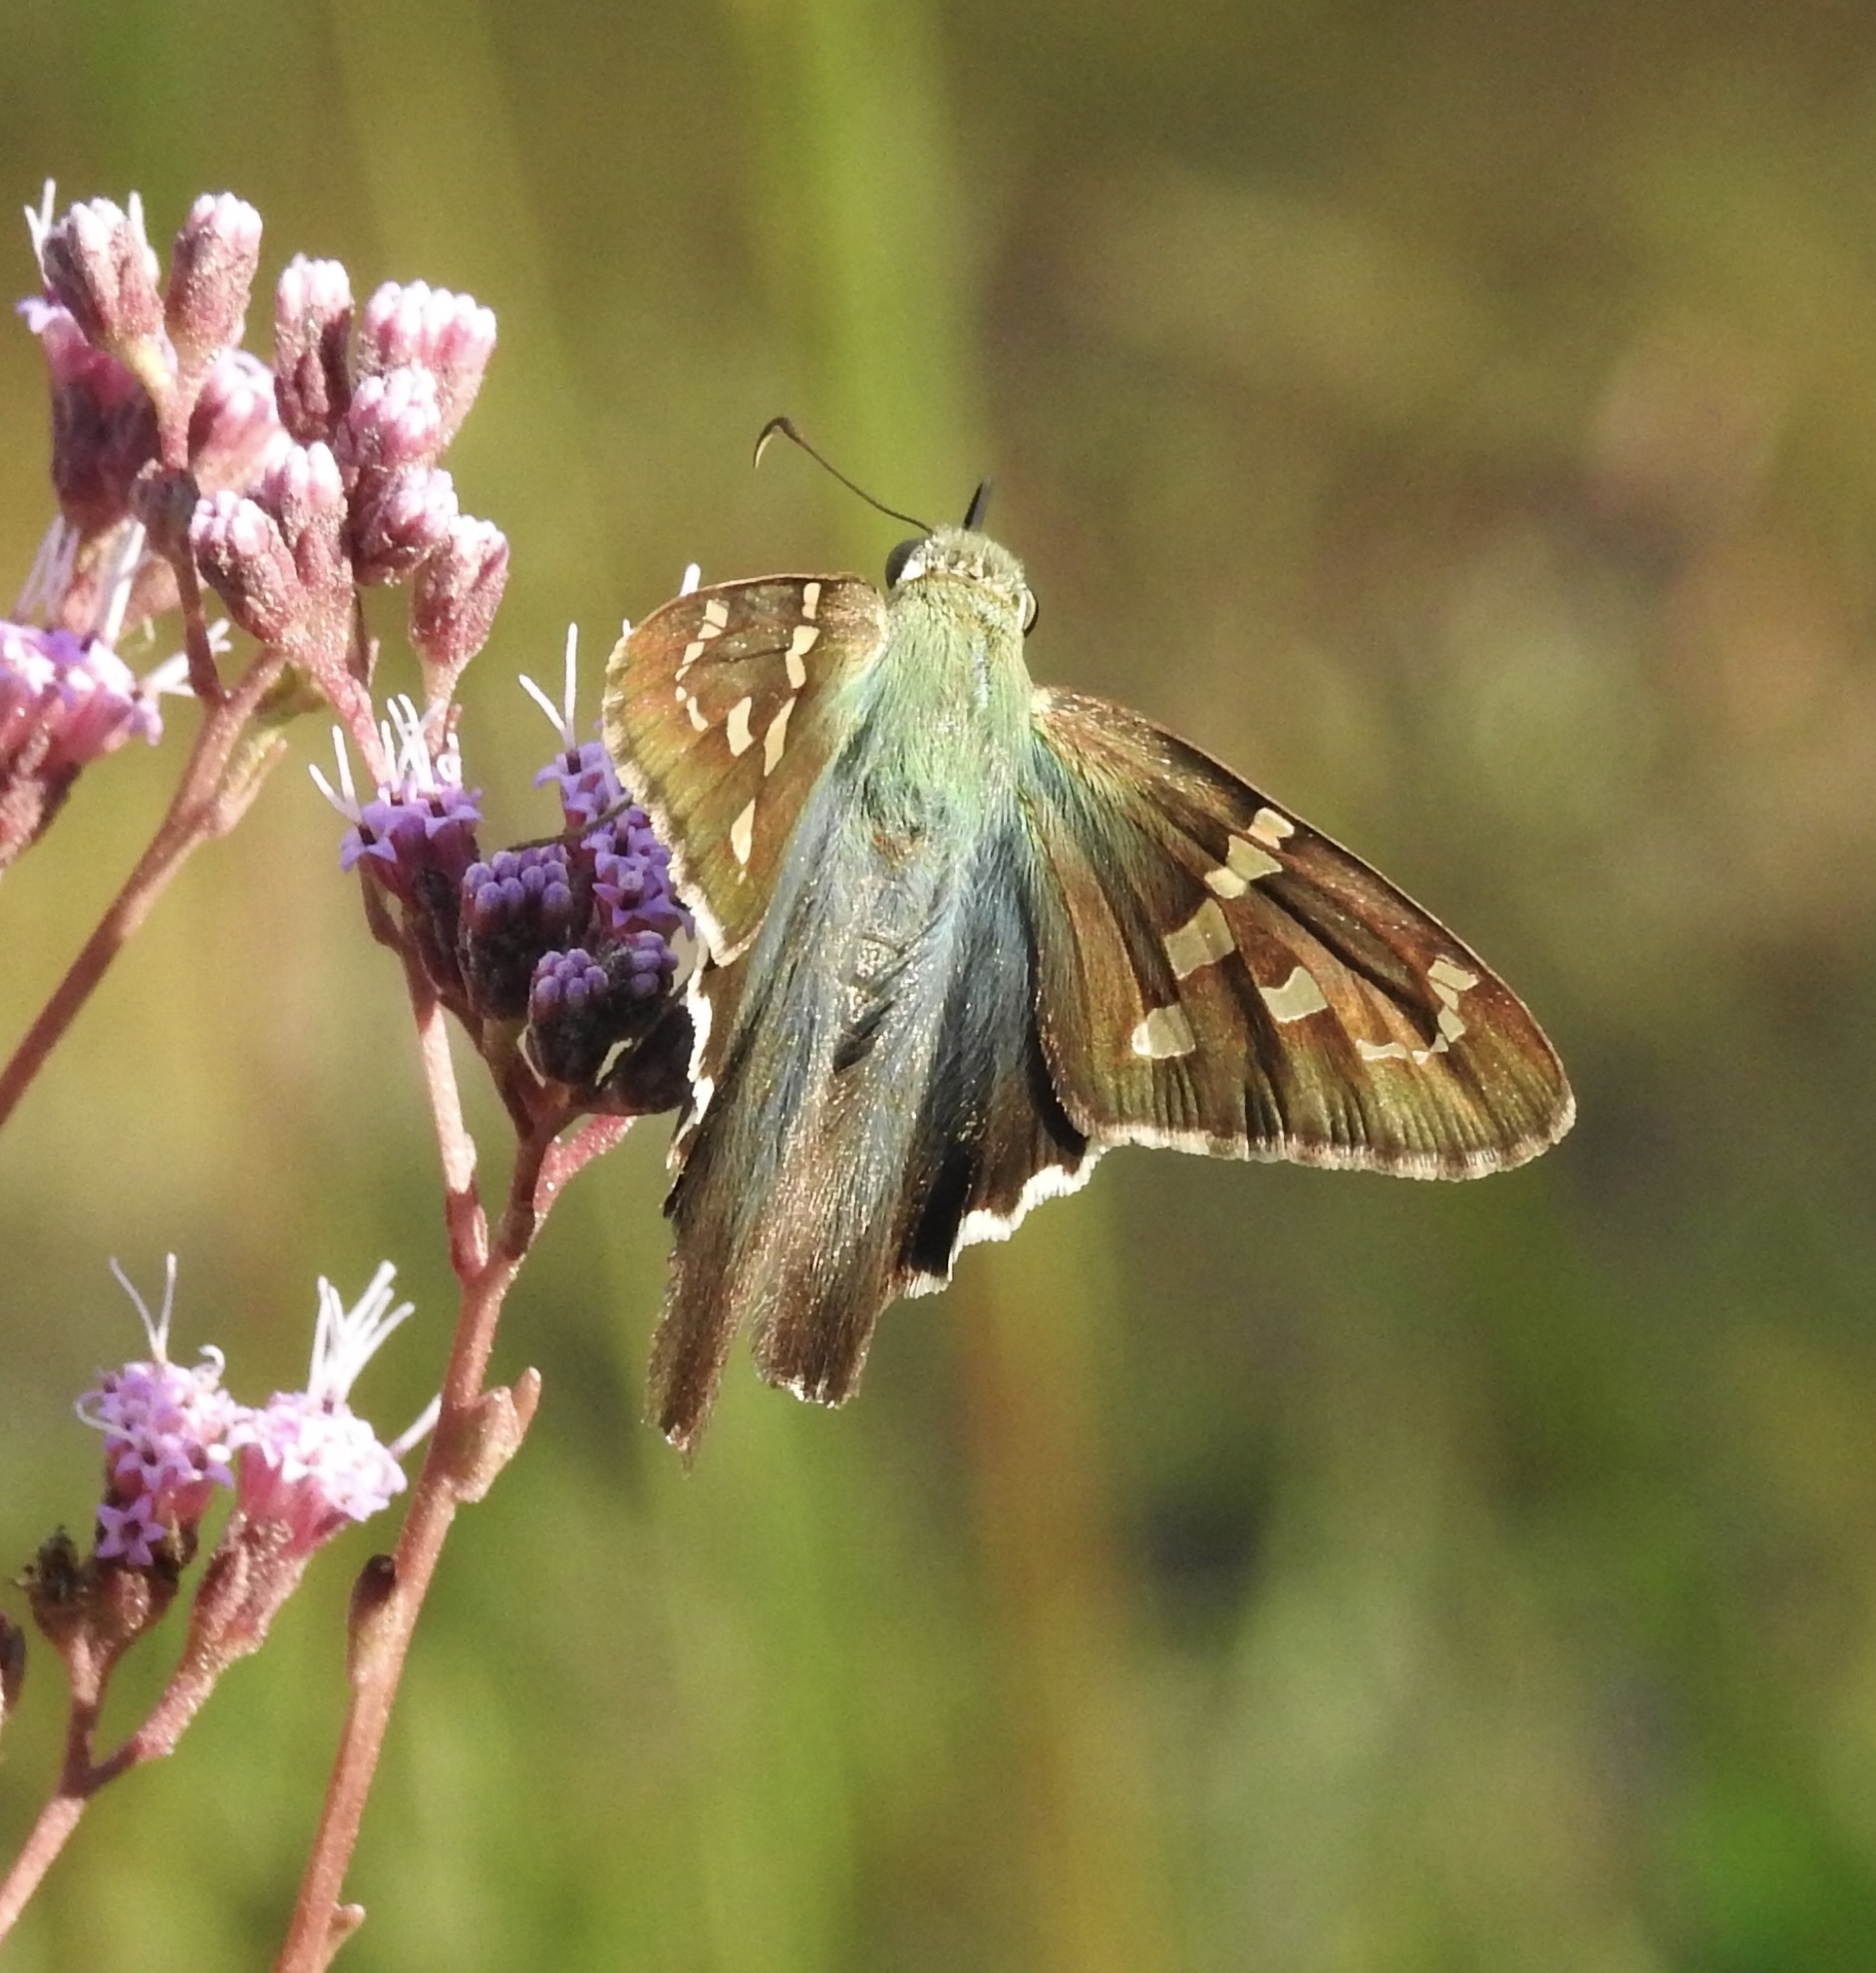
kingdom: Animalia
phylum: Arthropoda
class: Insecta
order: Lepidoptera
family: Hesperiidae
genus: Urbanus
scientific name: Urbanus proteus
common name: Long-tailed skipper
